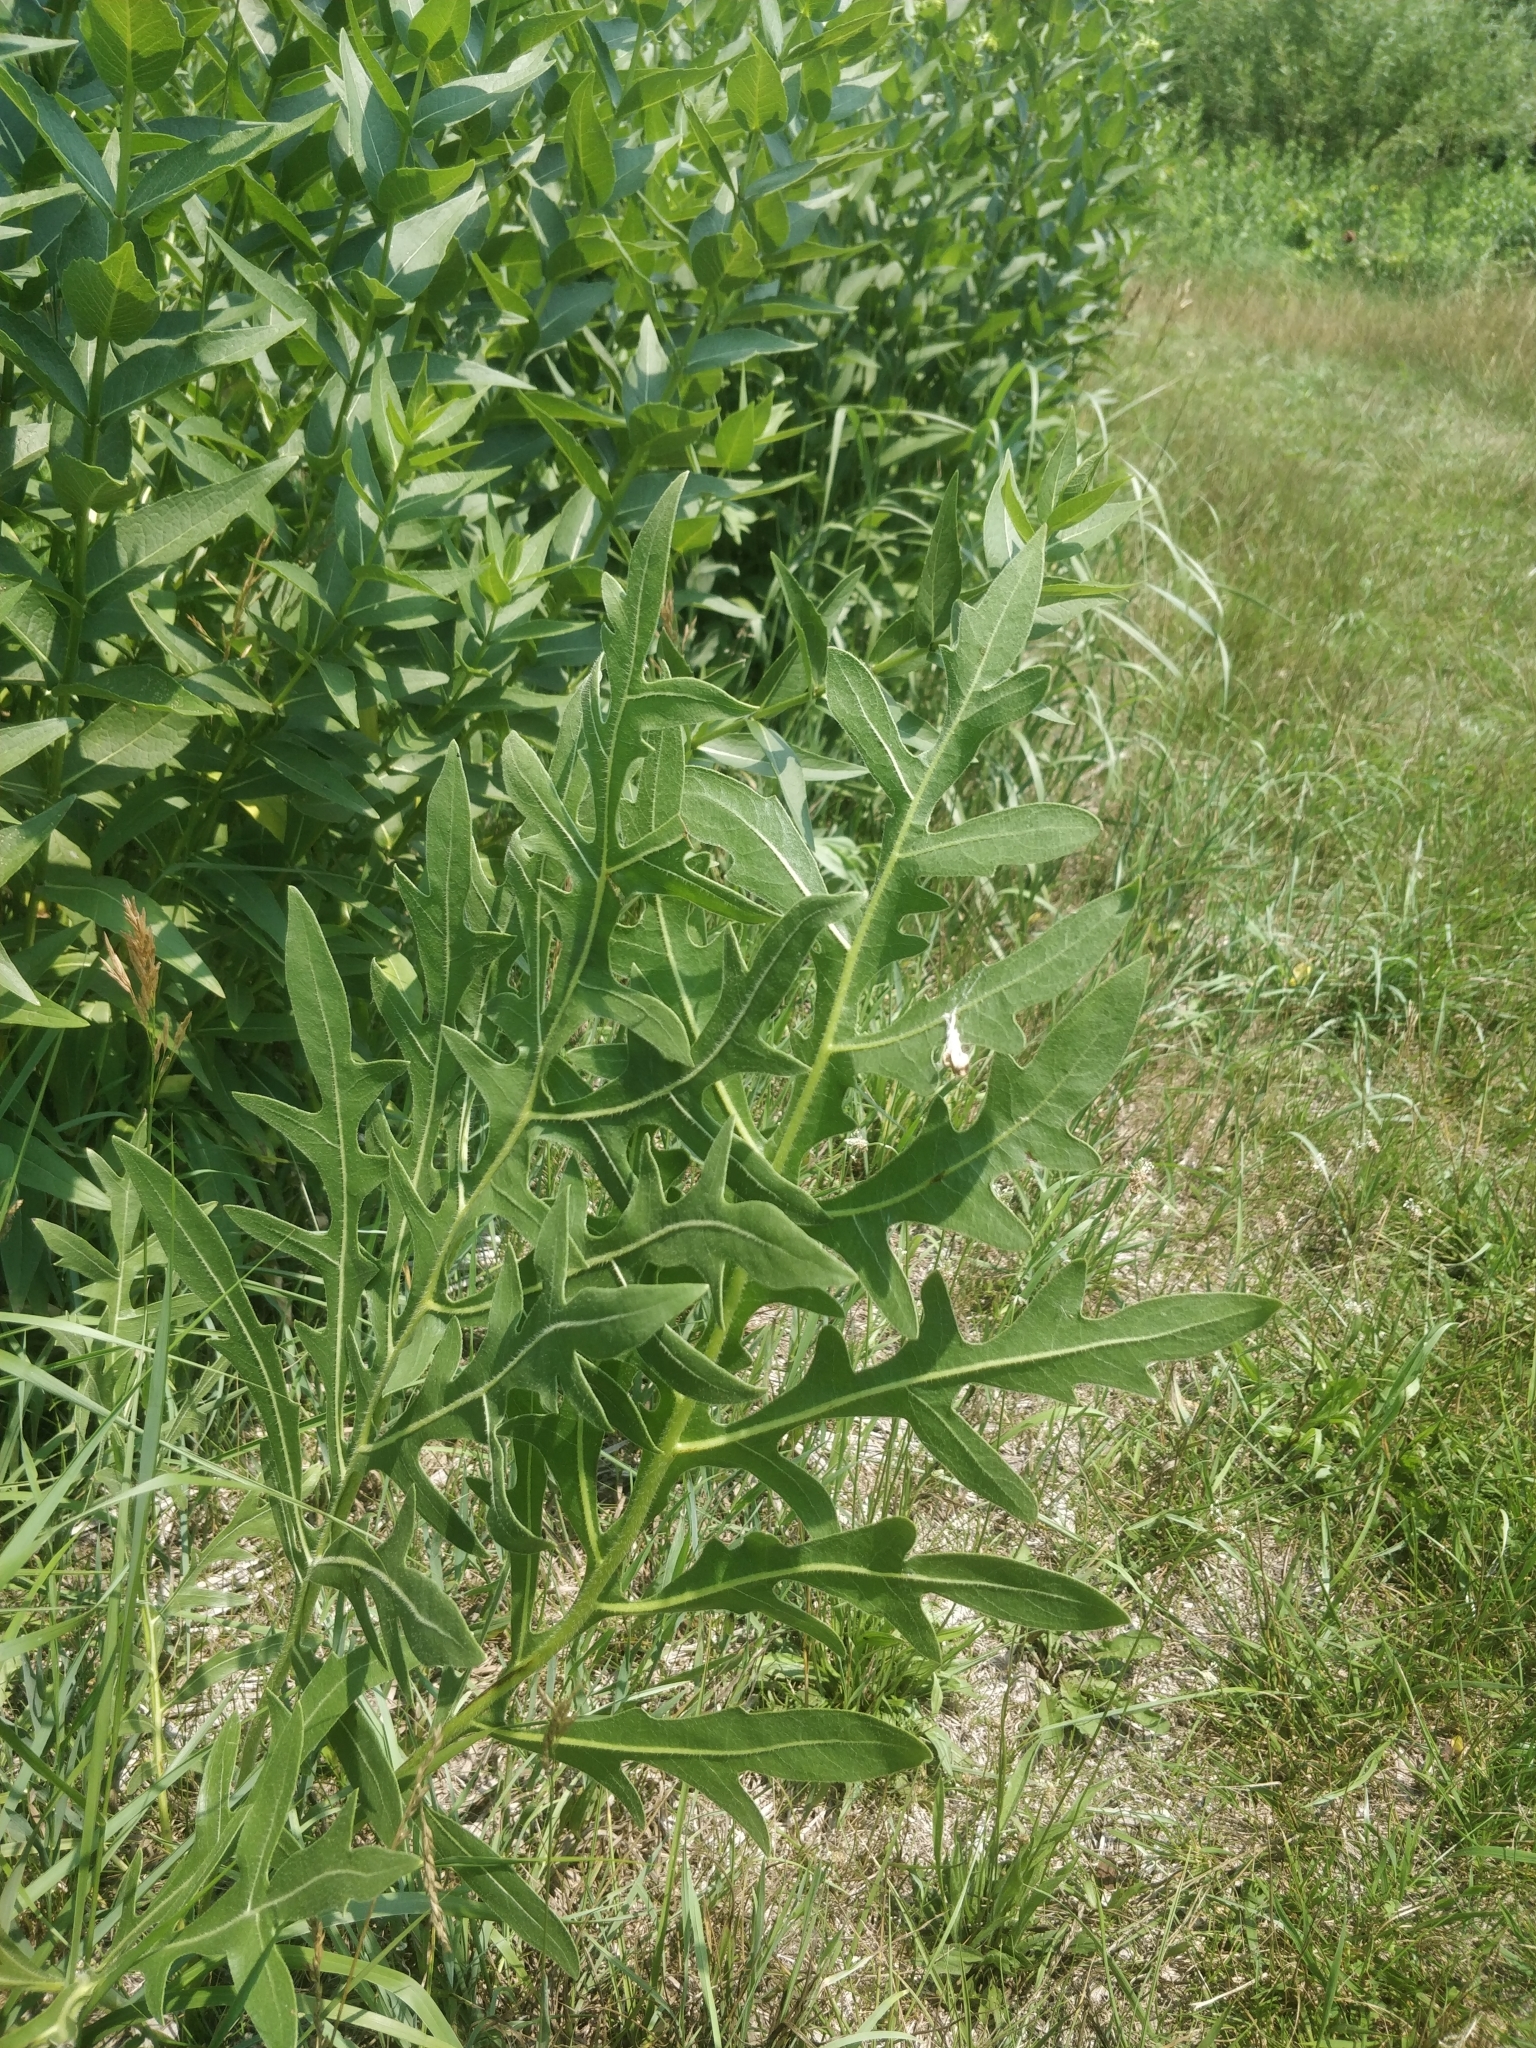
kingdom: Plantae
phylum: Tracheophyta
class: Magnoliopsida
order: Asterales
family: Asteraceae
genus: Silphium
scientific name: Silphium laciniatum
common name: Polarplant
